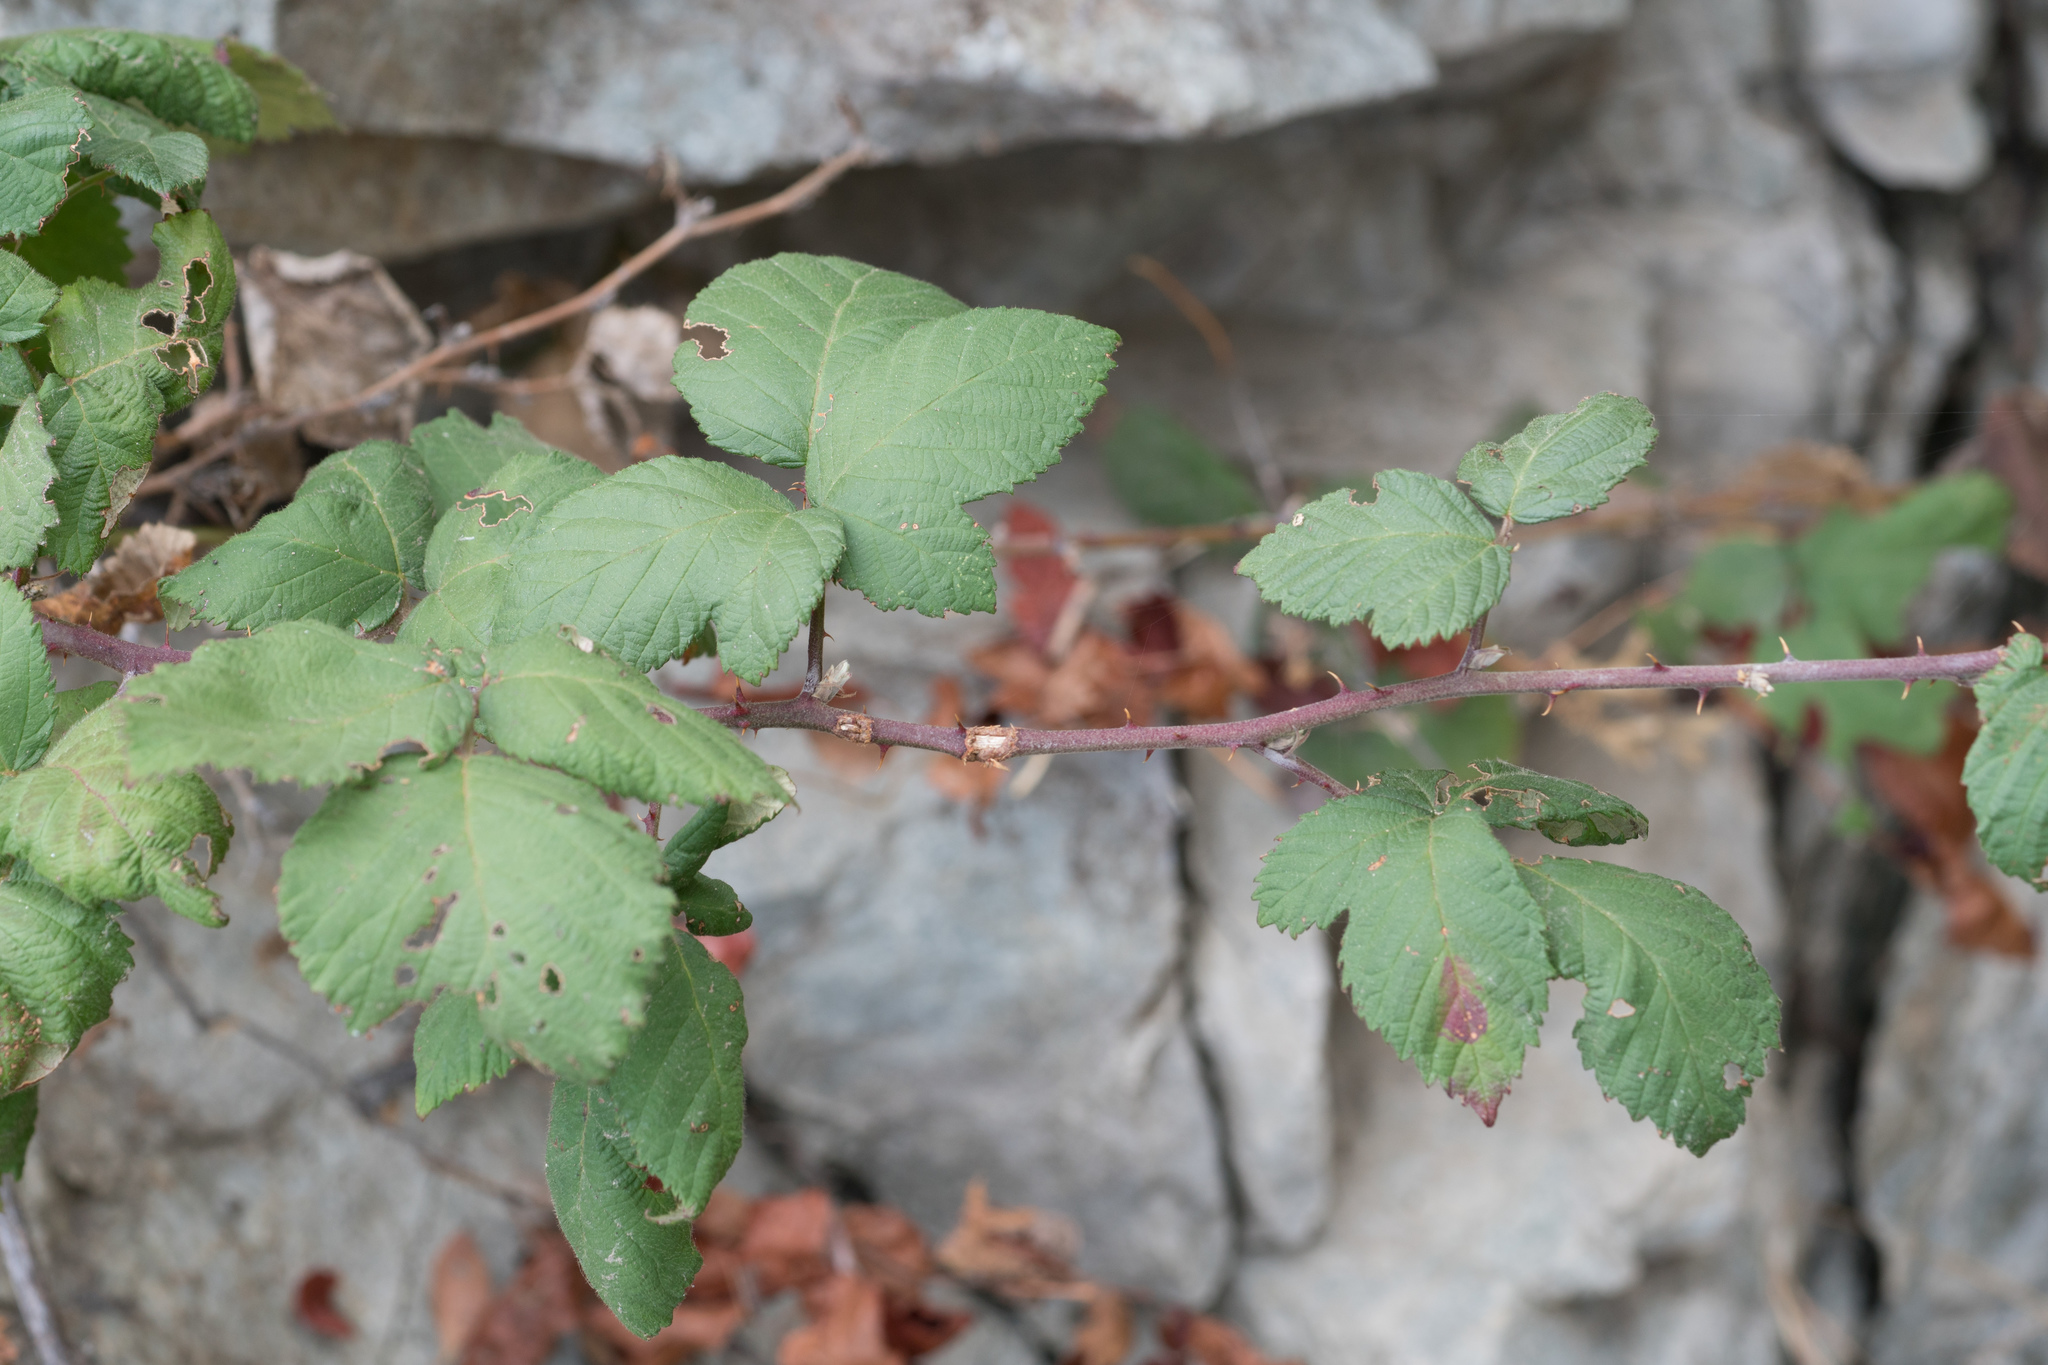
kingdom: Plantae
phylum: Tracheophyta
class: Magnoliopsida
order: Rosales
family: Rosaceae
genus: Rubus
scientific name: Rubus armeniacus
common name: Himalayan blackberry
